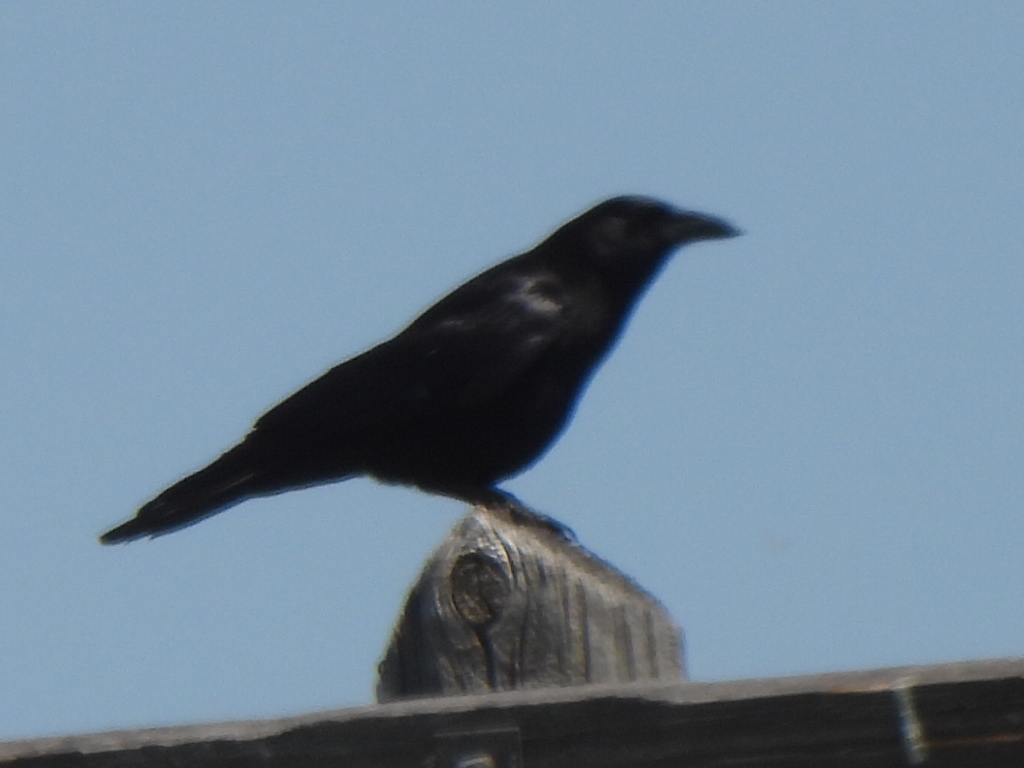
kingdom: Animalia
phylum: Chordata
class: Aves
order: Passeriformes
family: Corvidae
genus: Corvus
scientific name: Corvus brachyrhynchos
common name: American crow
